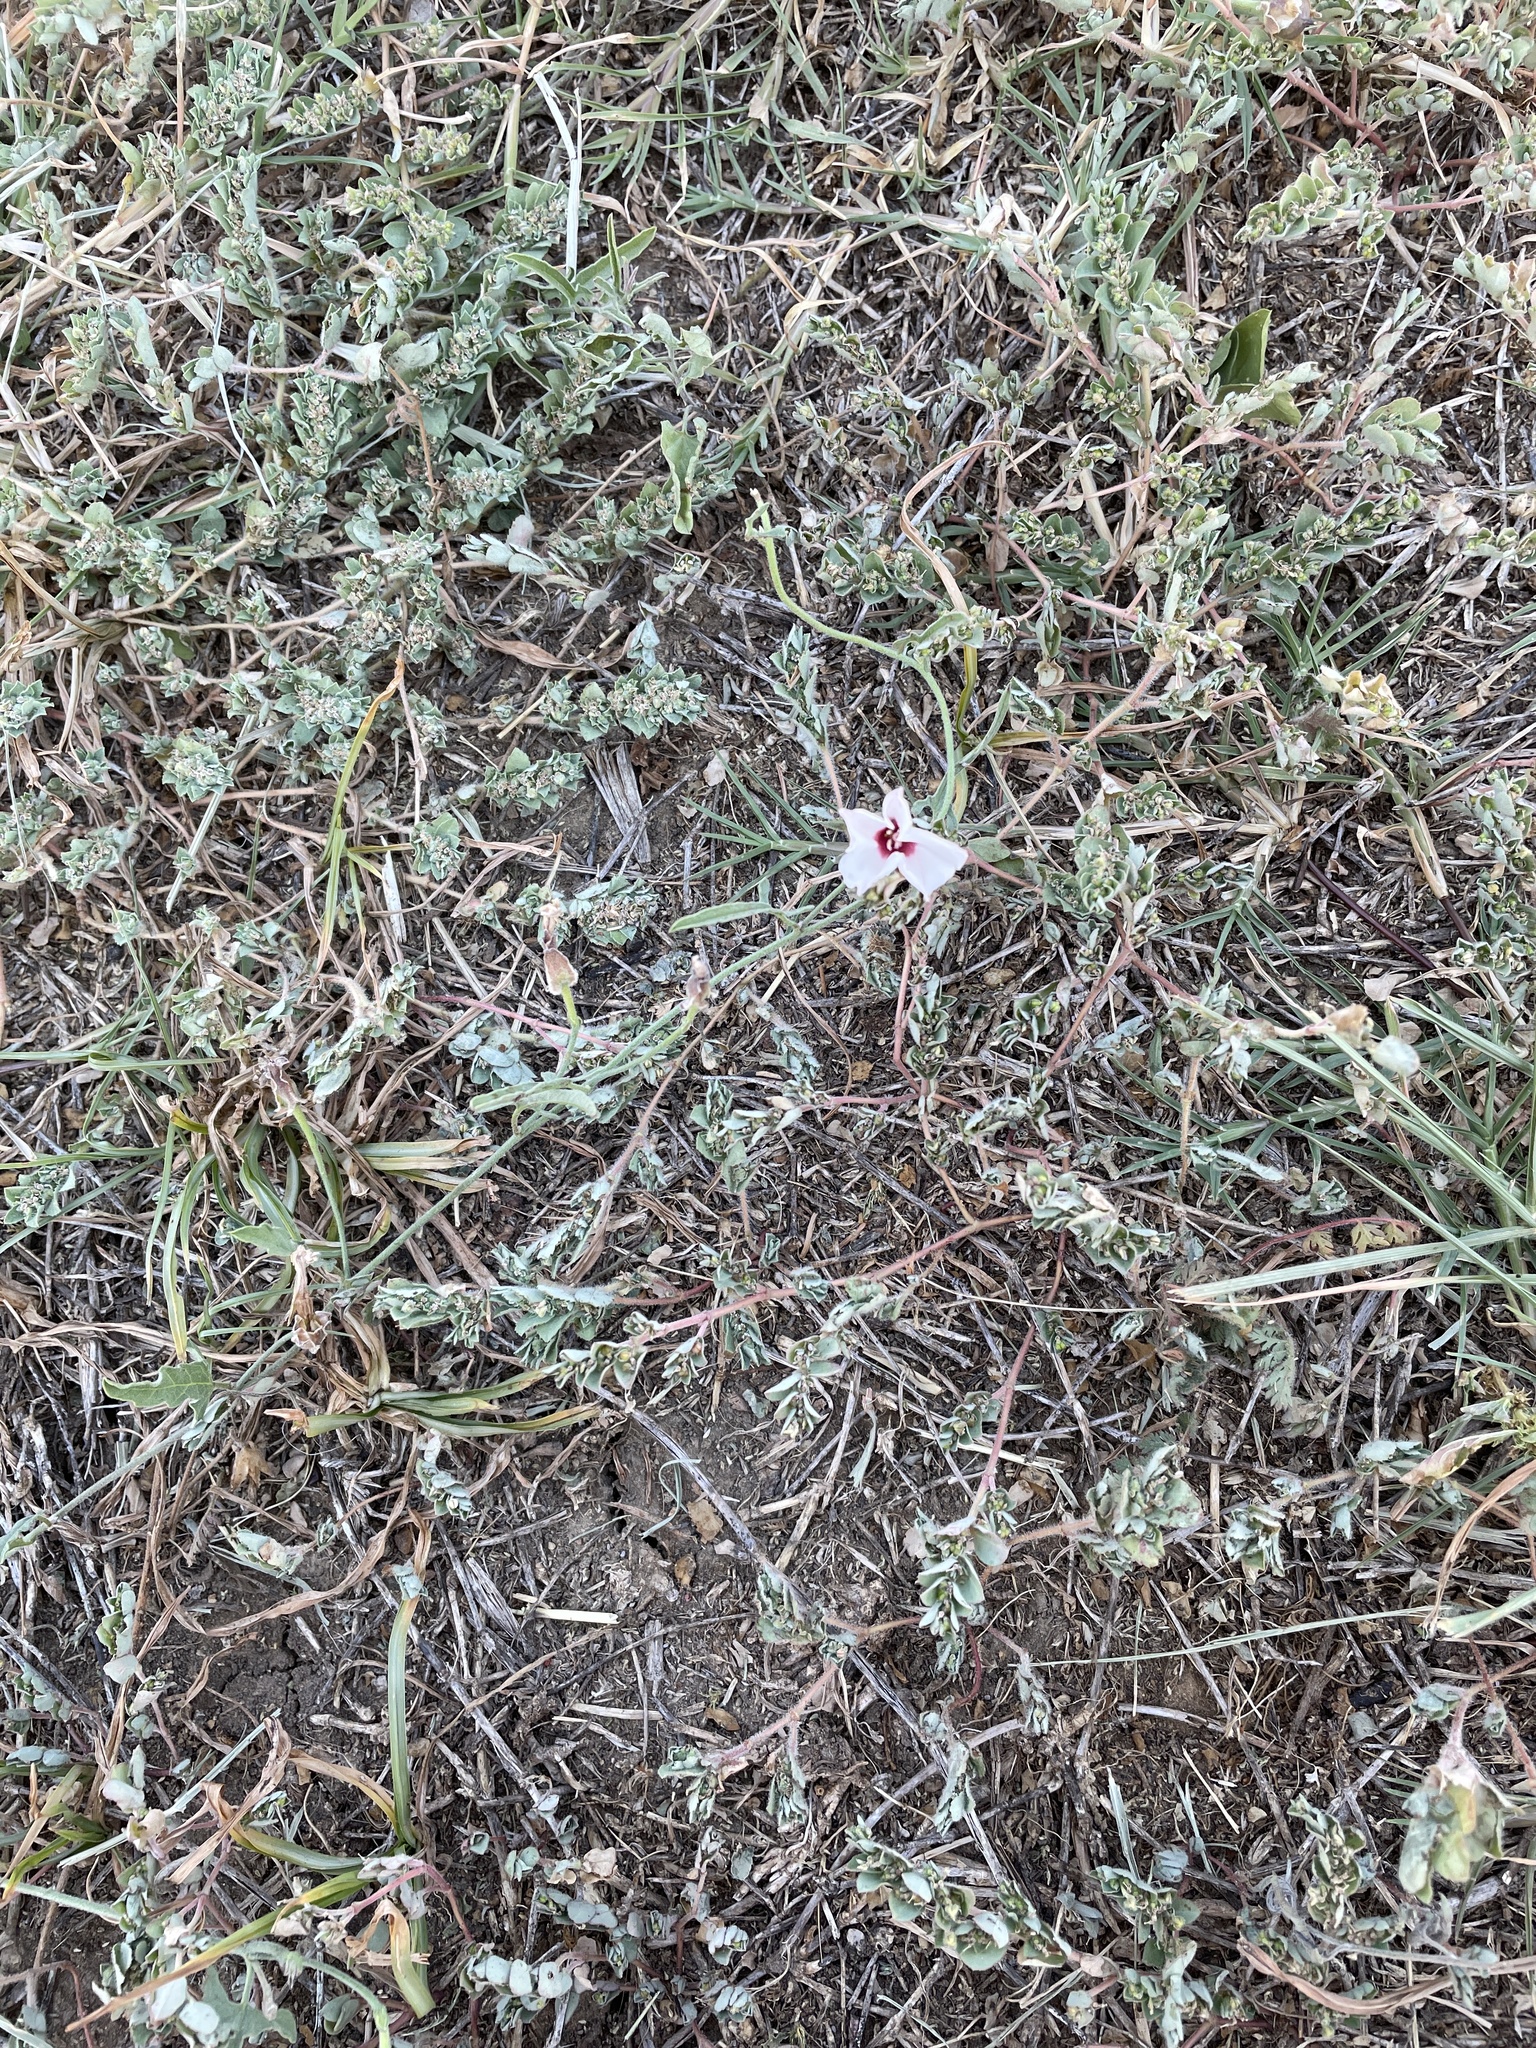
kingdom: Plantae
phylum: Tracheophyta
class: Magnoliopsida
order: Solanales
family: Convolvulaceae
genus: Convolvulus
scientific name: Convolvulus equitans
